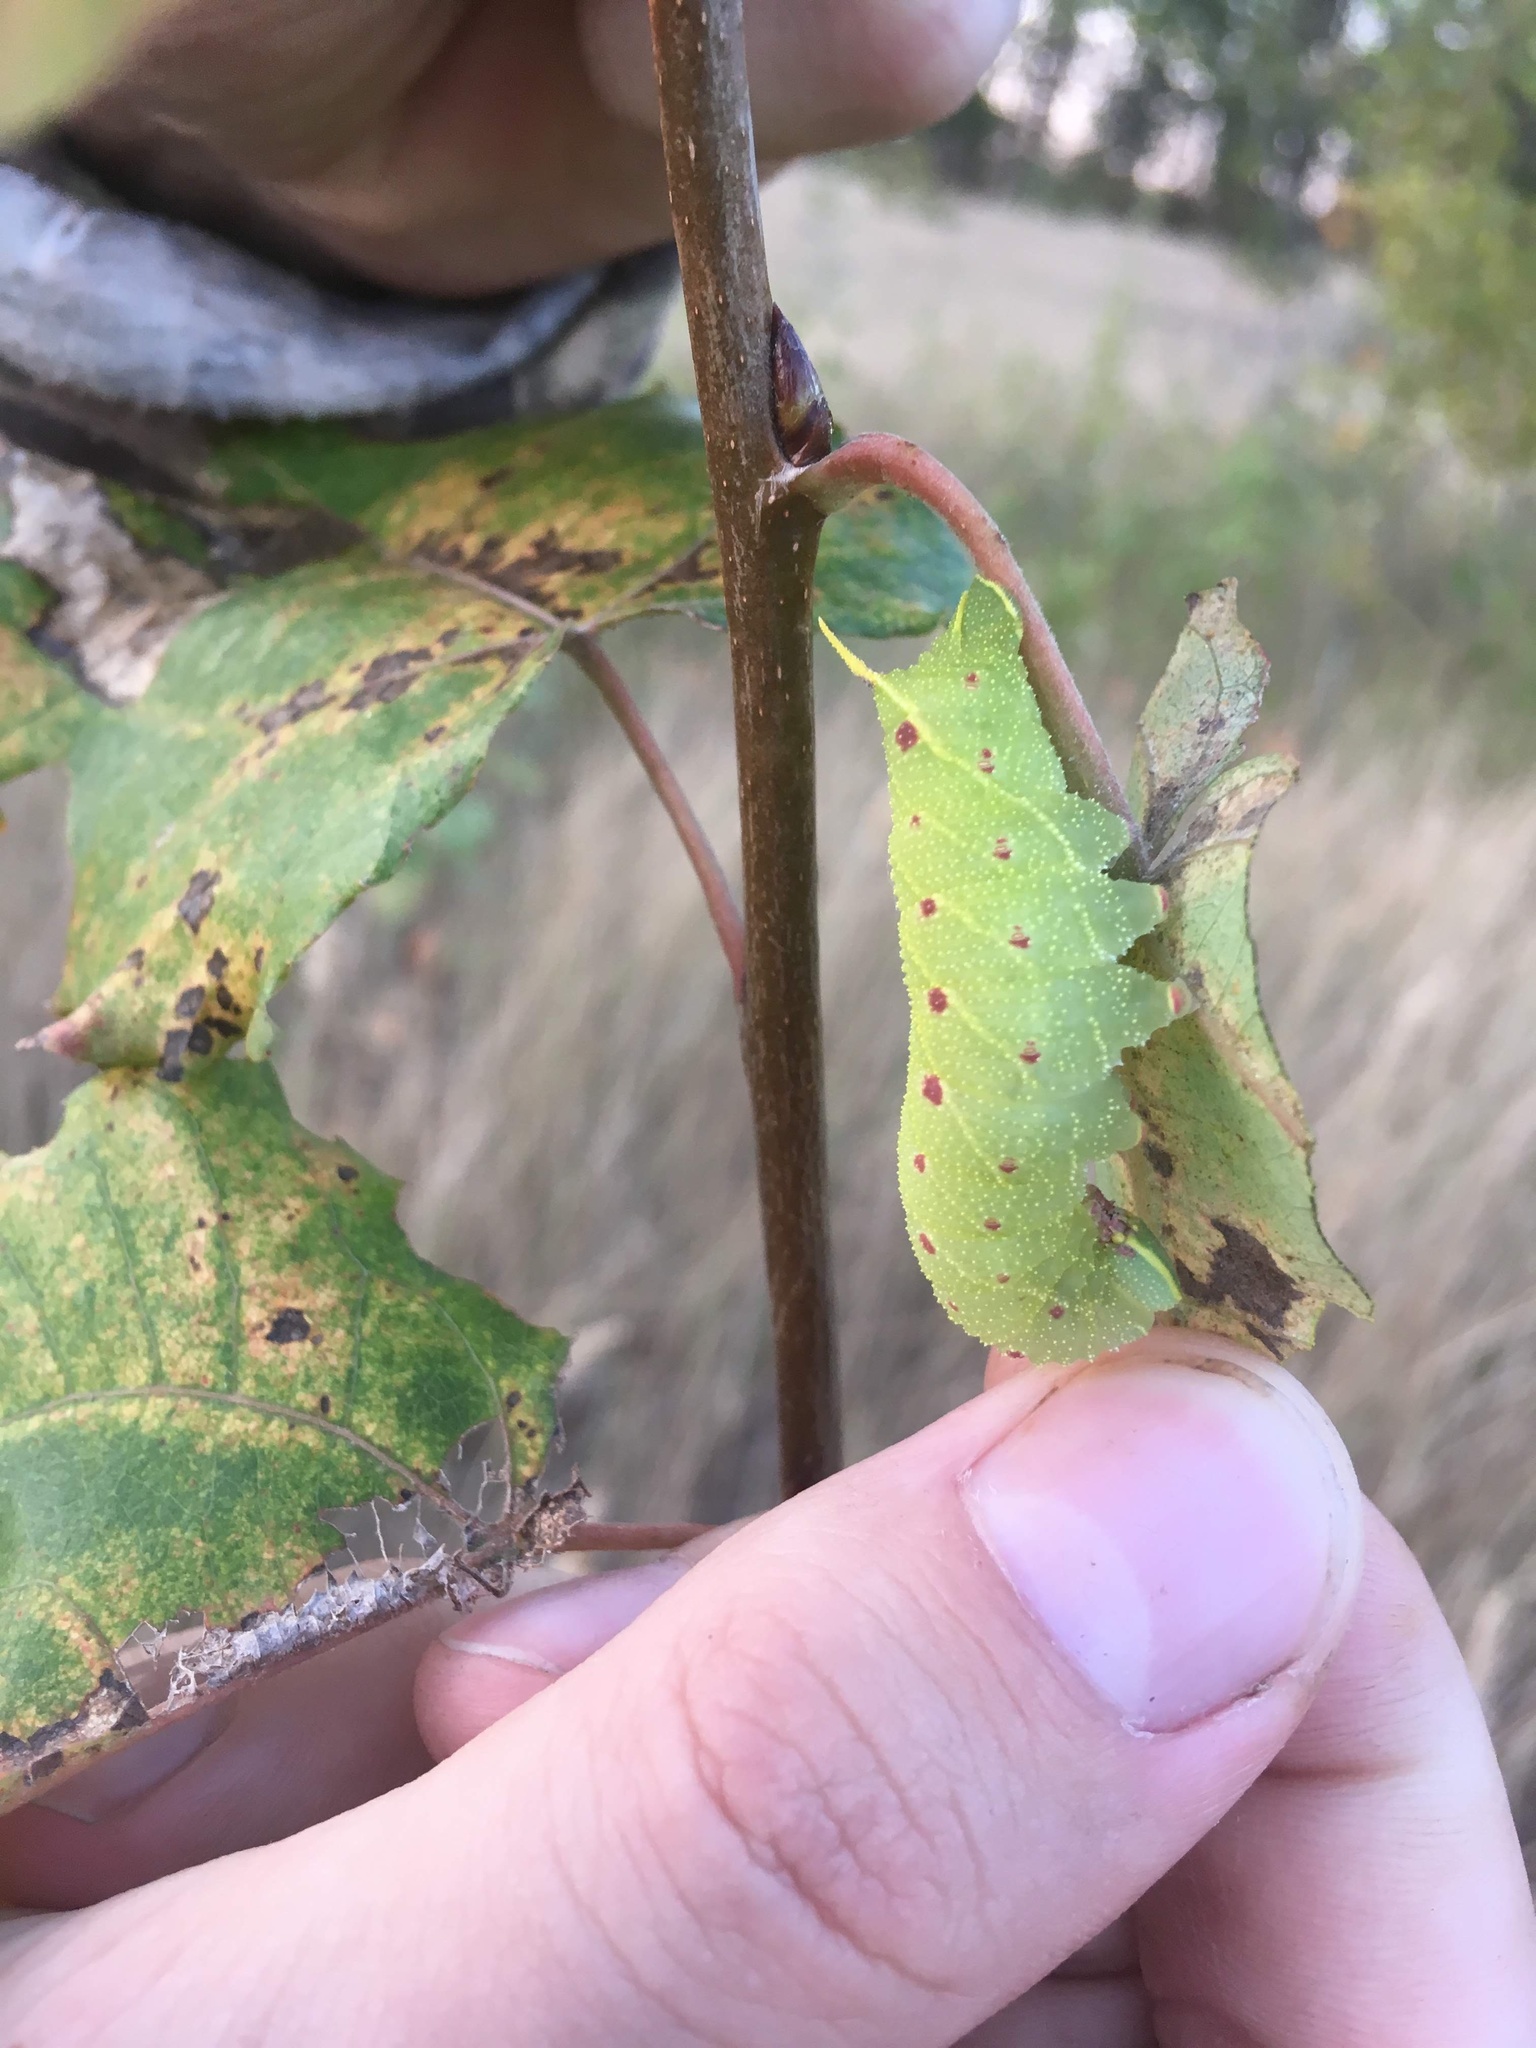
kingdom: Animalia
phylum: Arthropoda
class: Insecta
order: Lepidoptera
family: Sphingidae
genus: Laothoe
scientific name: Laothoe populi
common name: Poplar hawk-moth
